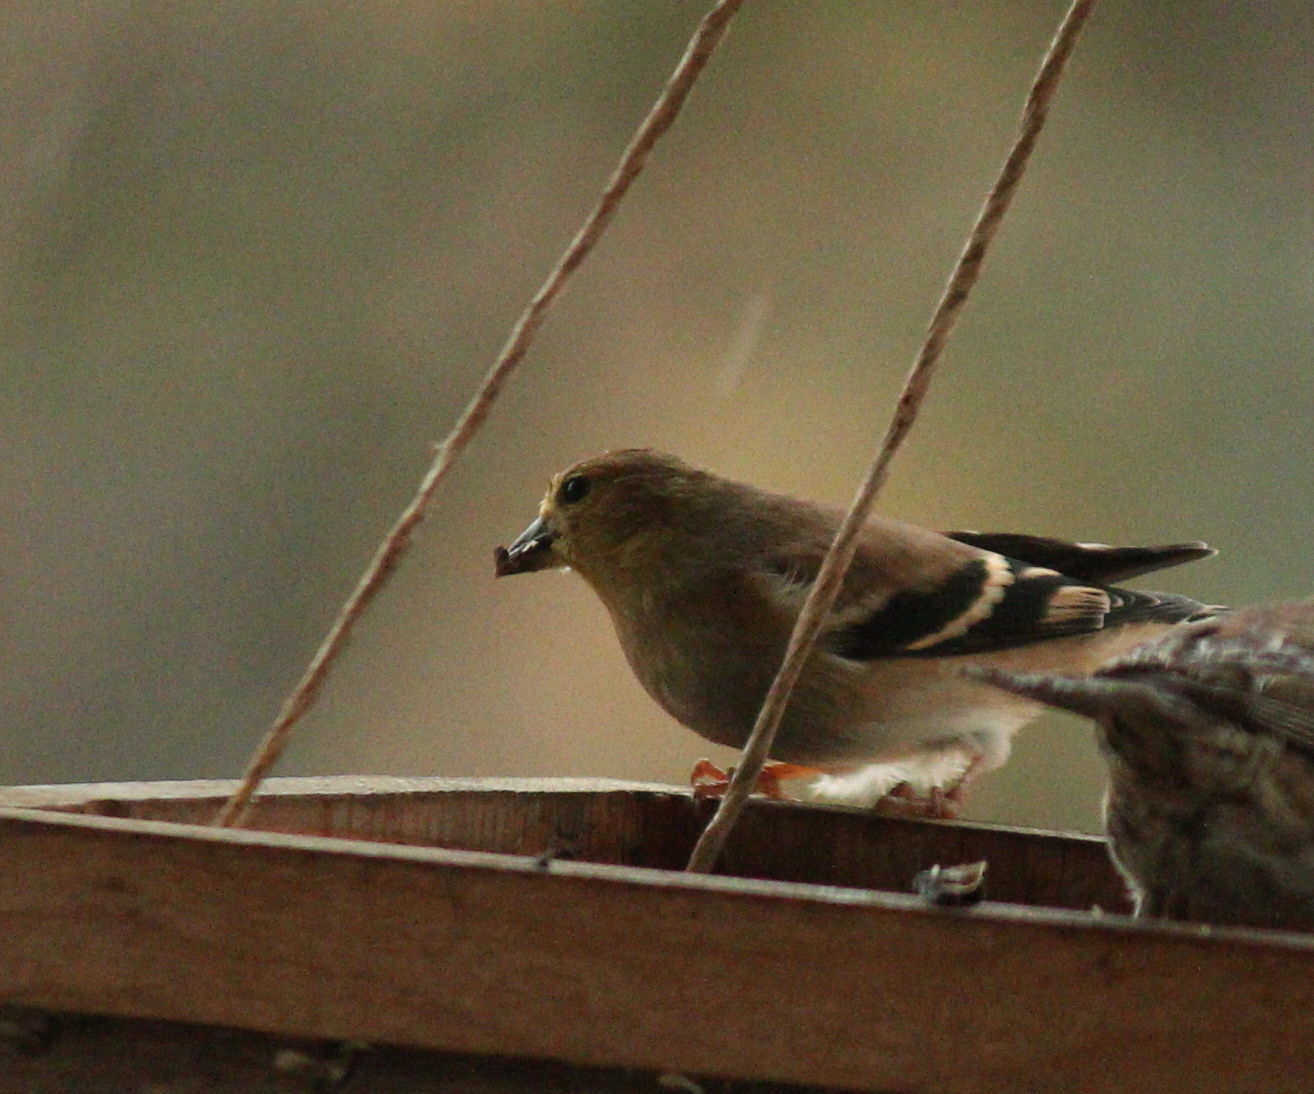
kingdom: Animalia
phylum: Chordata
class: Aves
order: Passeriformes
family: Fringillidae
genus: Spinus
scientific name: Spinus tristis
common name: American goldfinch
